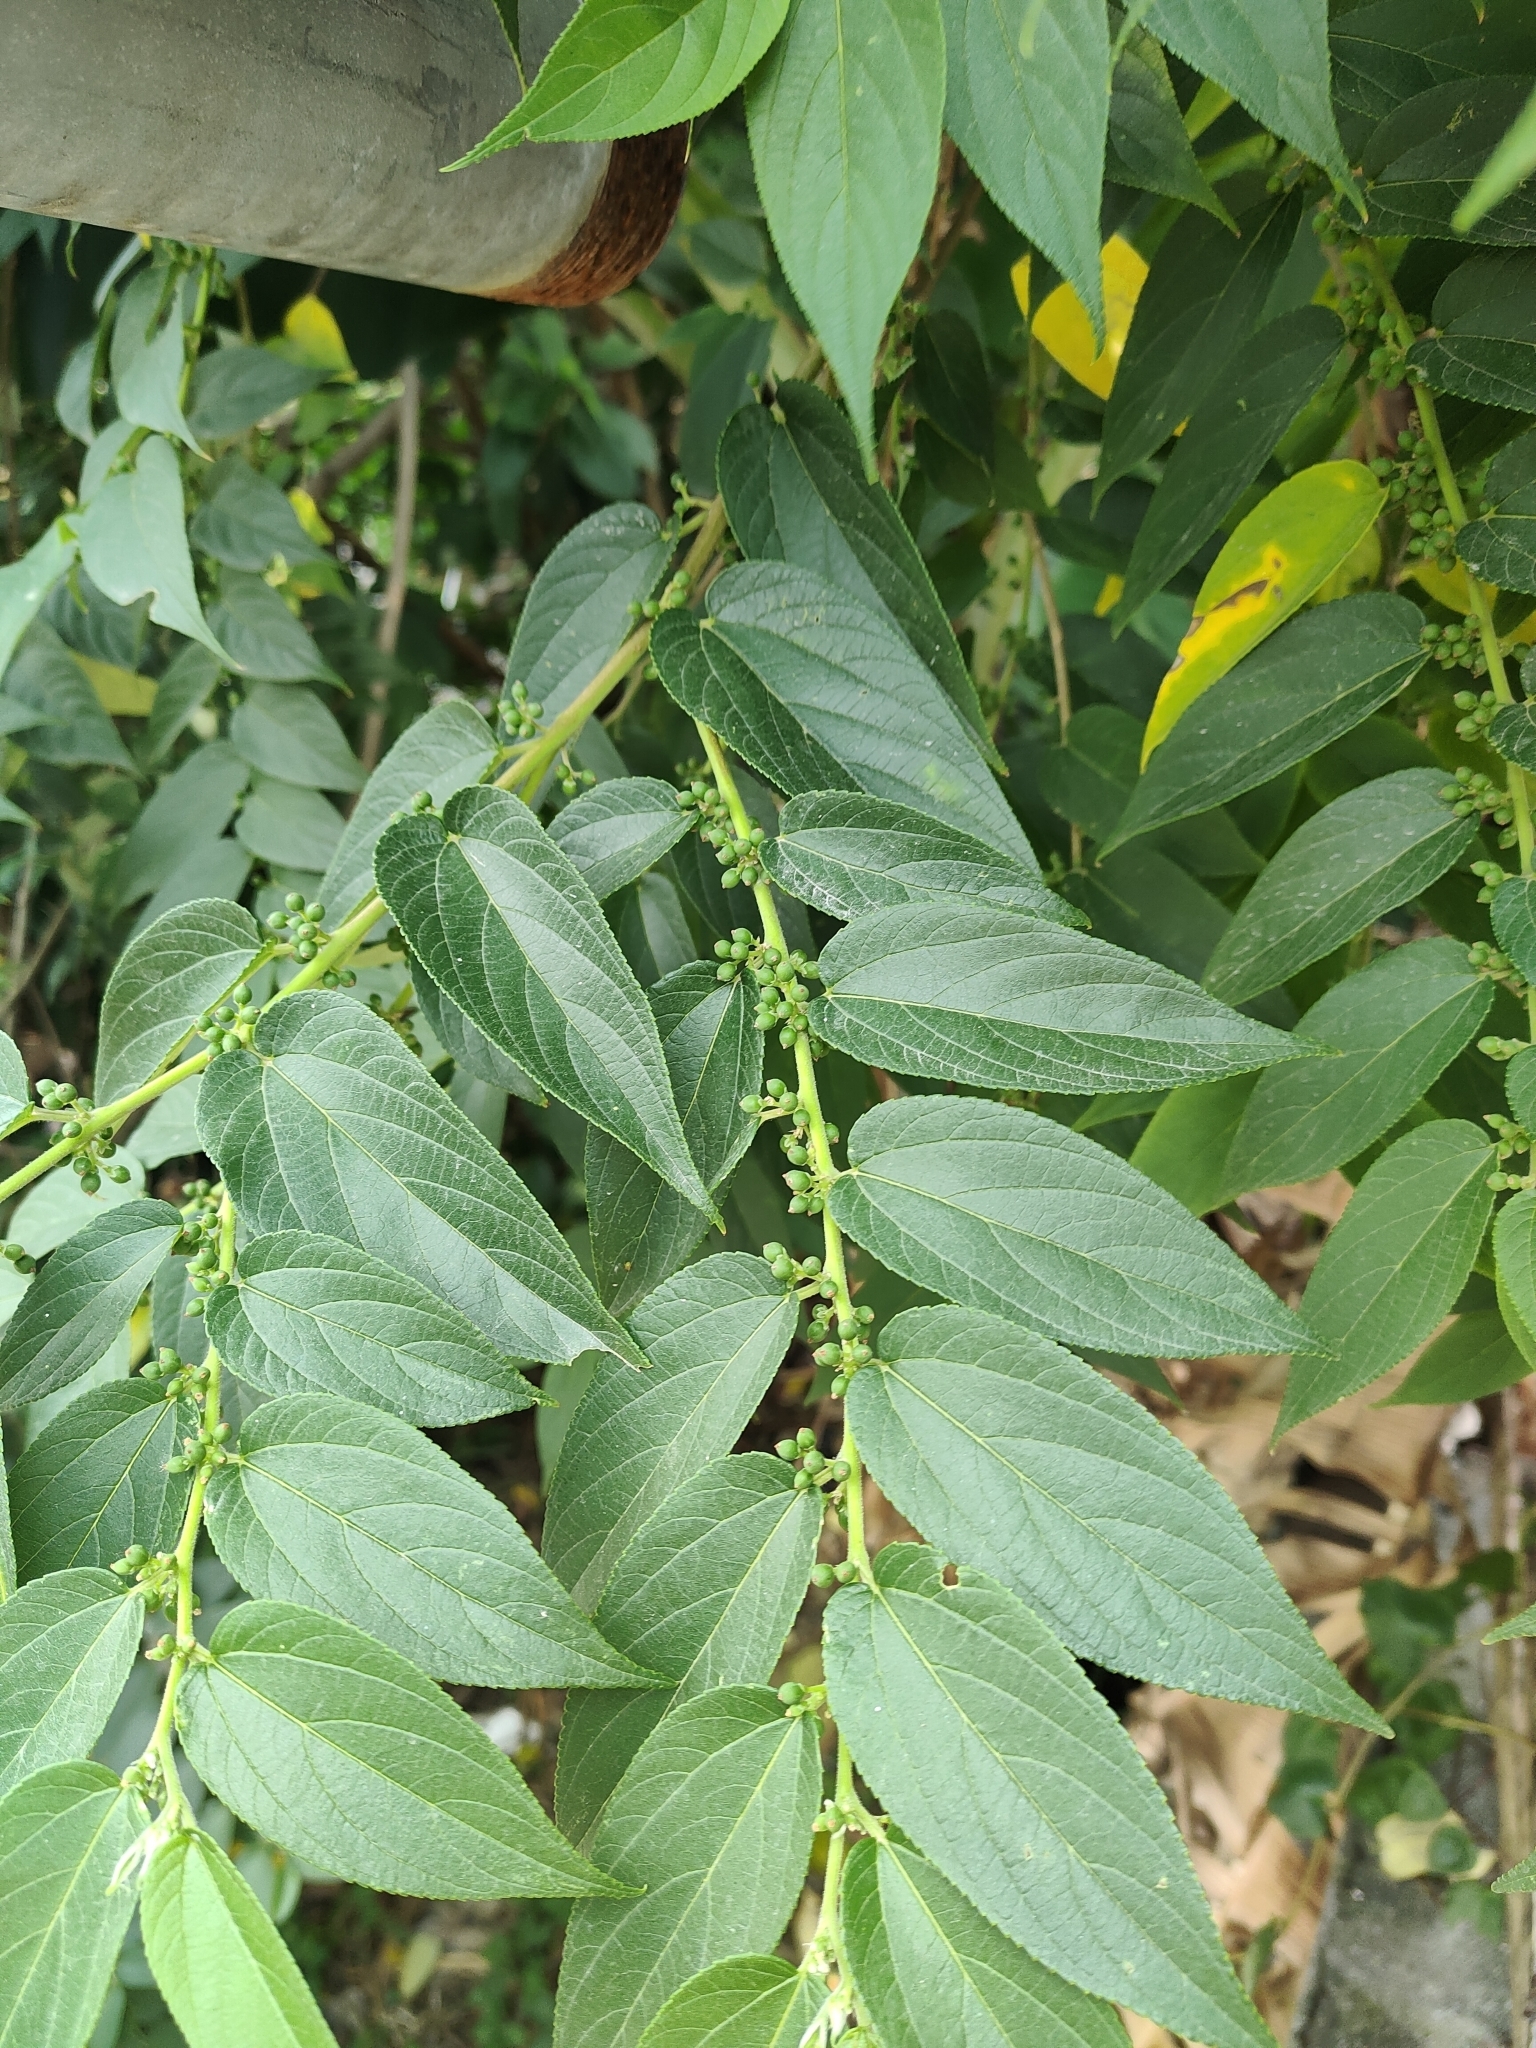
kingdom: Plantae
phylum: Tracheophyta
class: Magnoliopsida
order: Rosales
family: Cannabaceae
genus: Trema
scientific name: Trema orientale
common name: Indian charcoal tree
